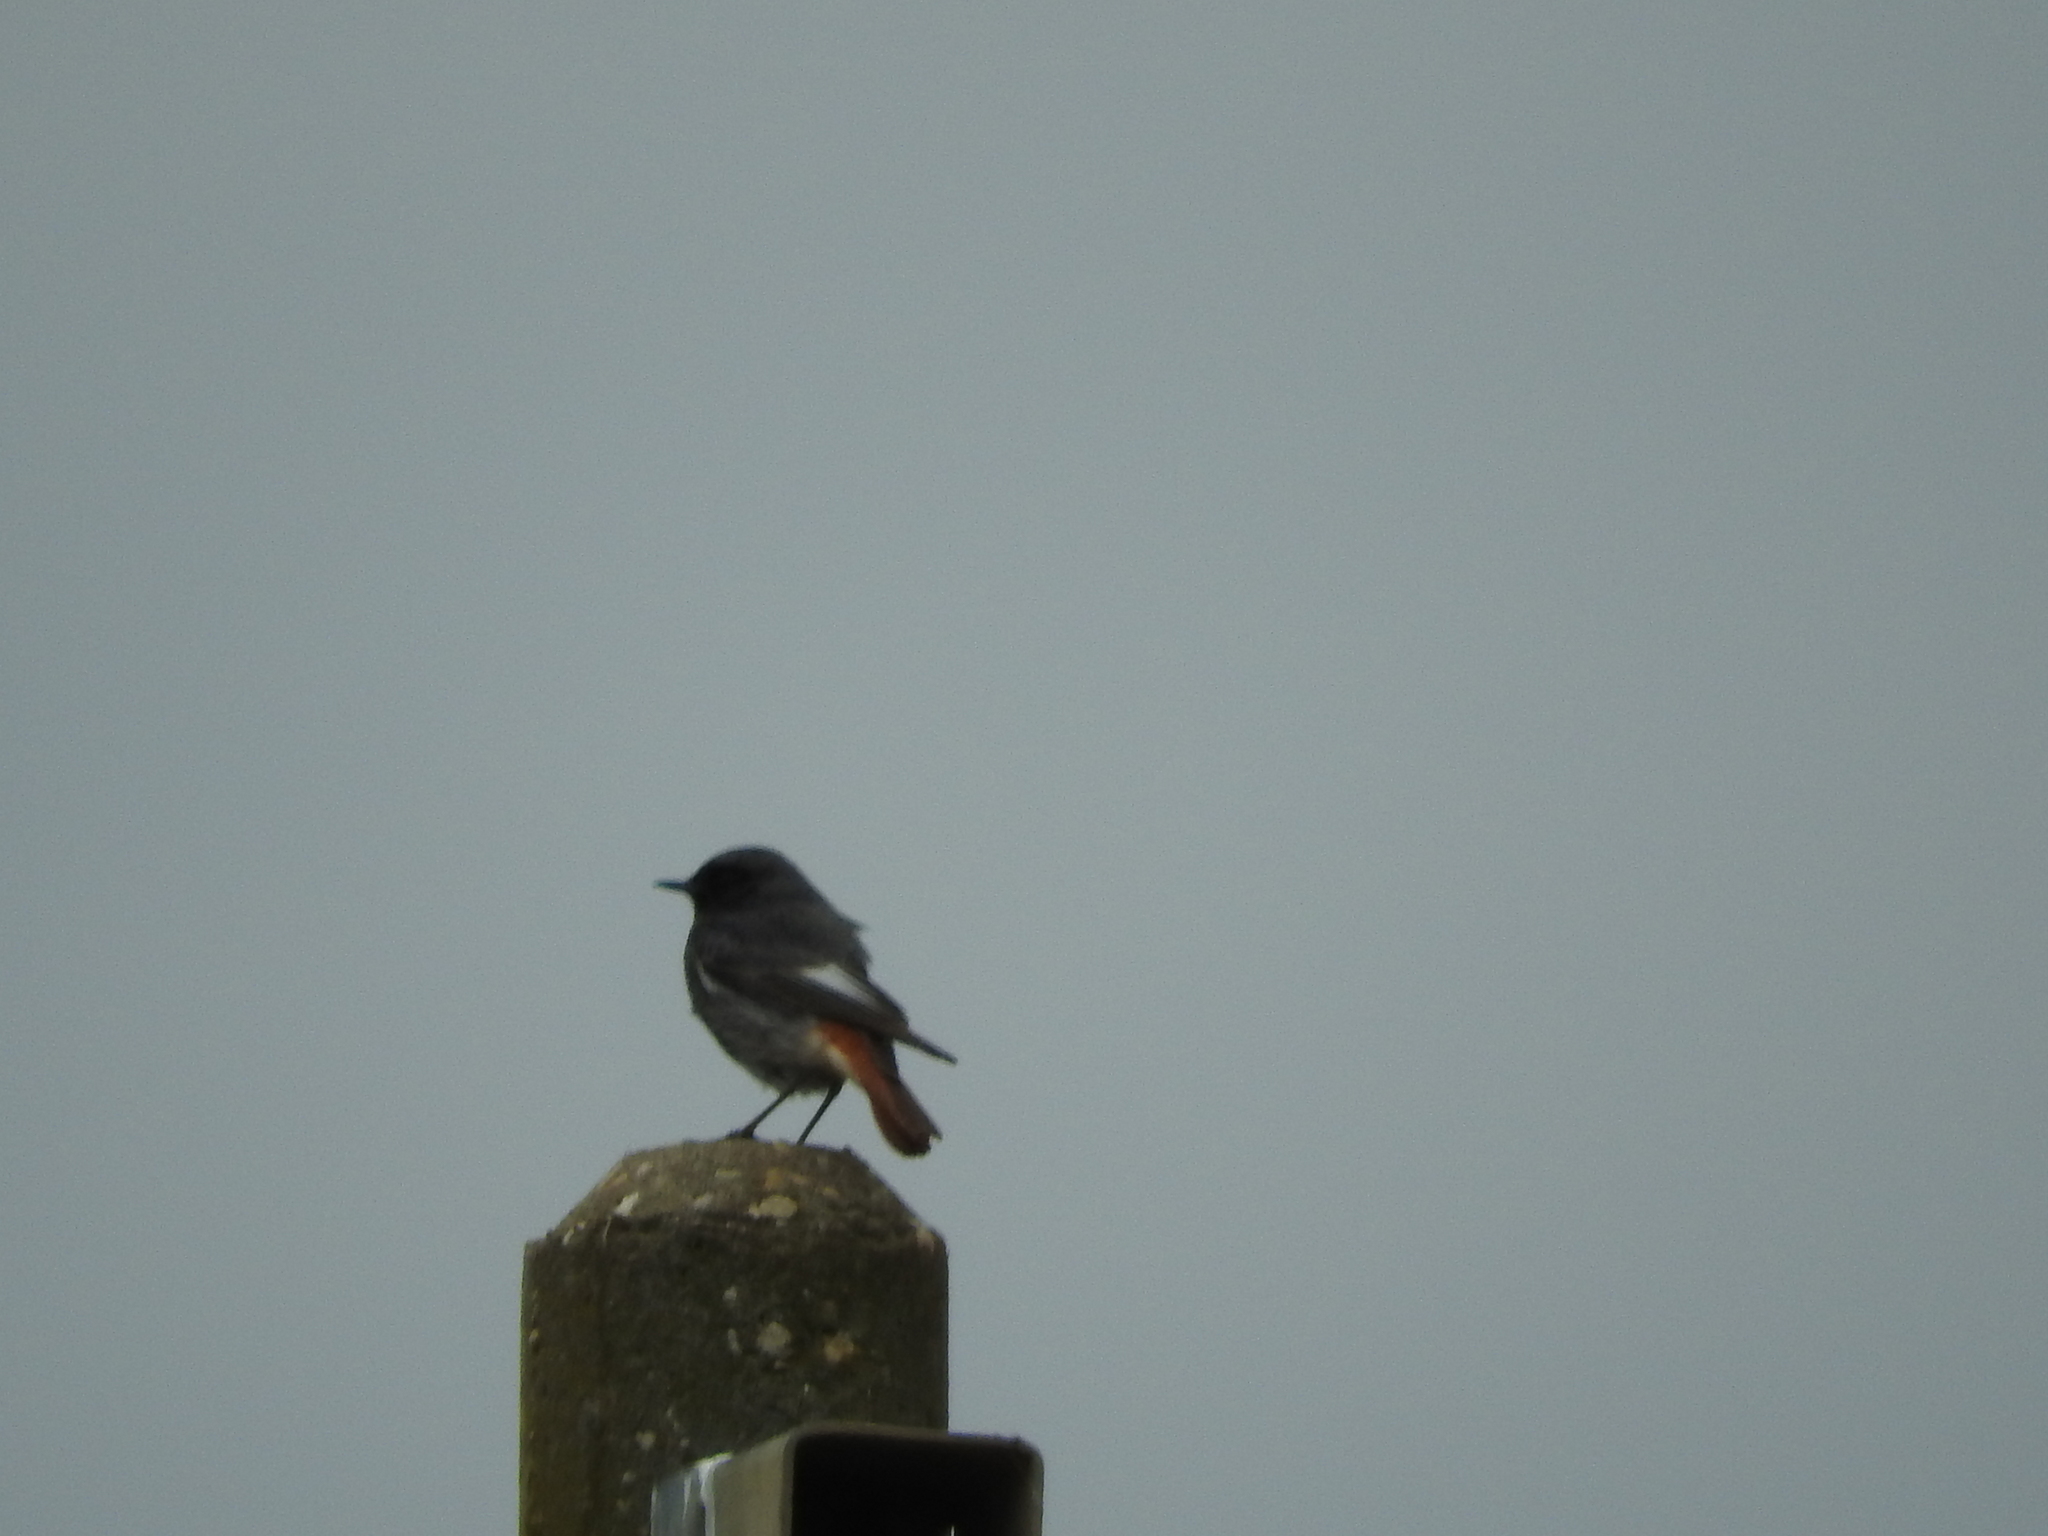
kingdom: Animalia
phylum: Chordata
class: Aves
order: Passeriformes
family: Muscicapidae
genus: Phoenicurus
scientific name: Phoenicurus ochruros
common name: Black redstart
